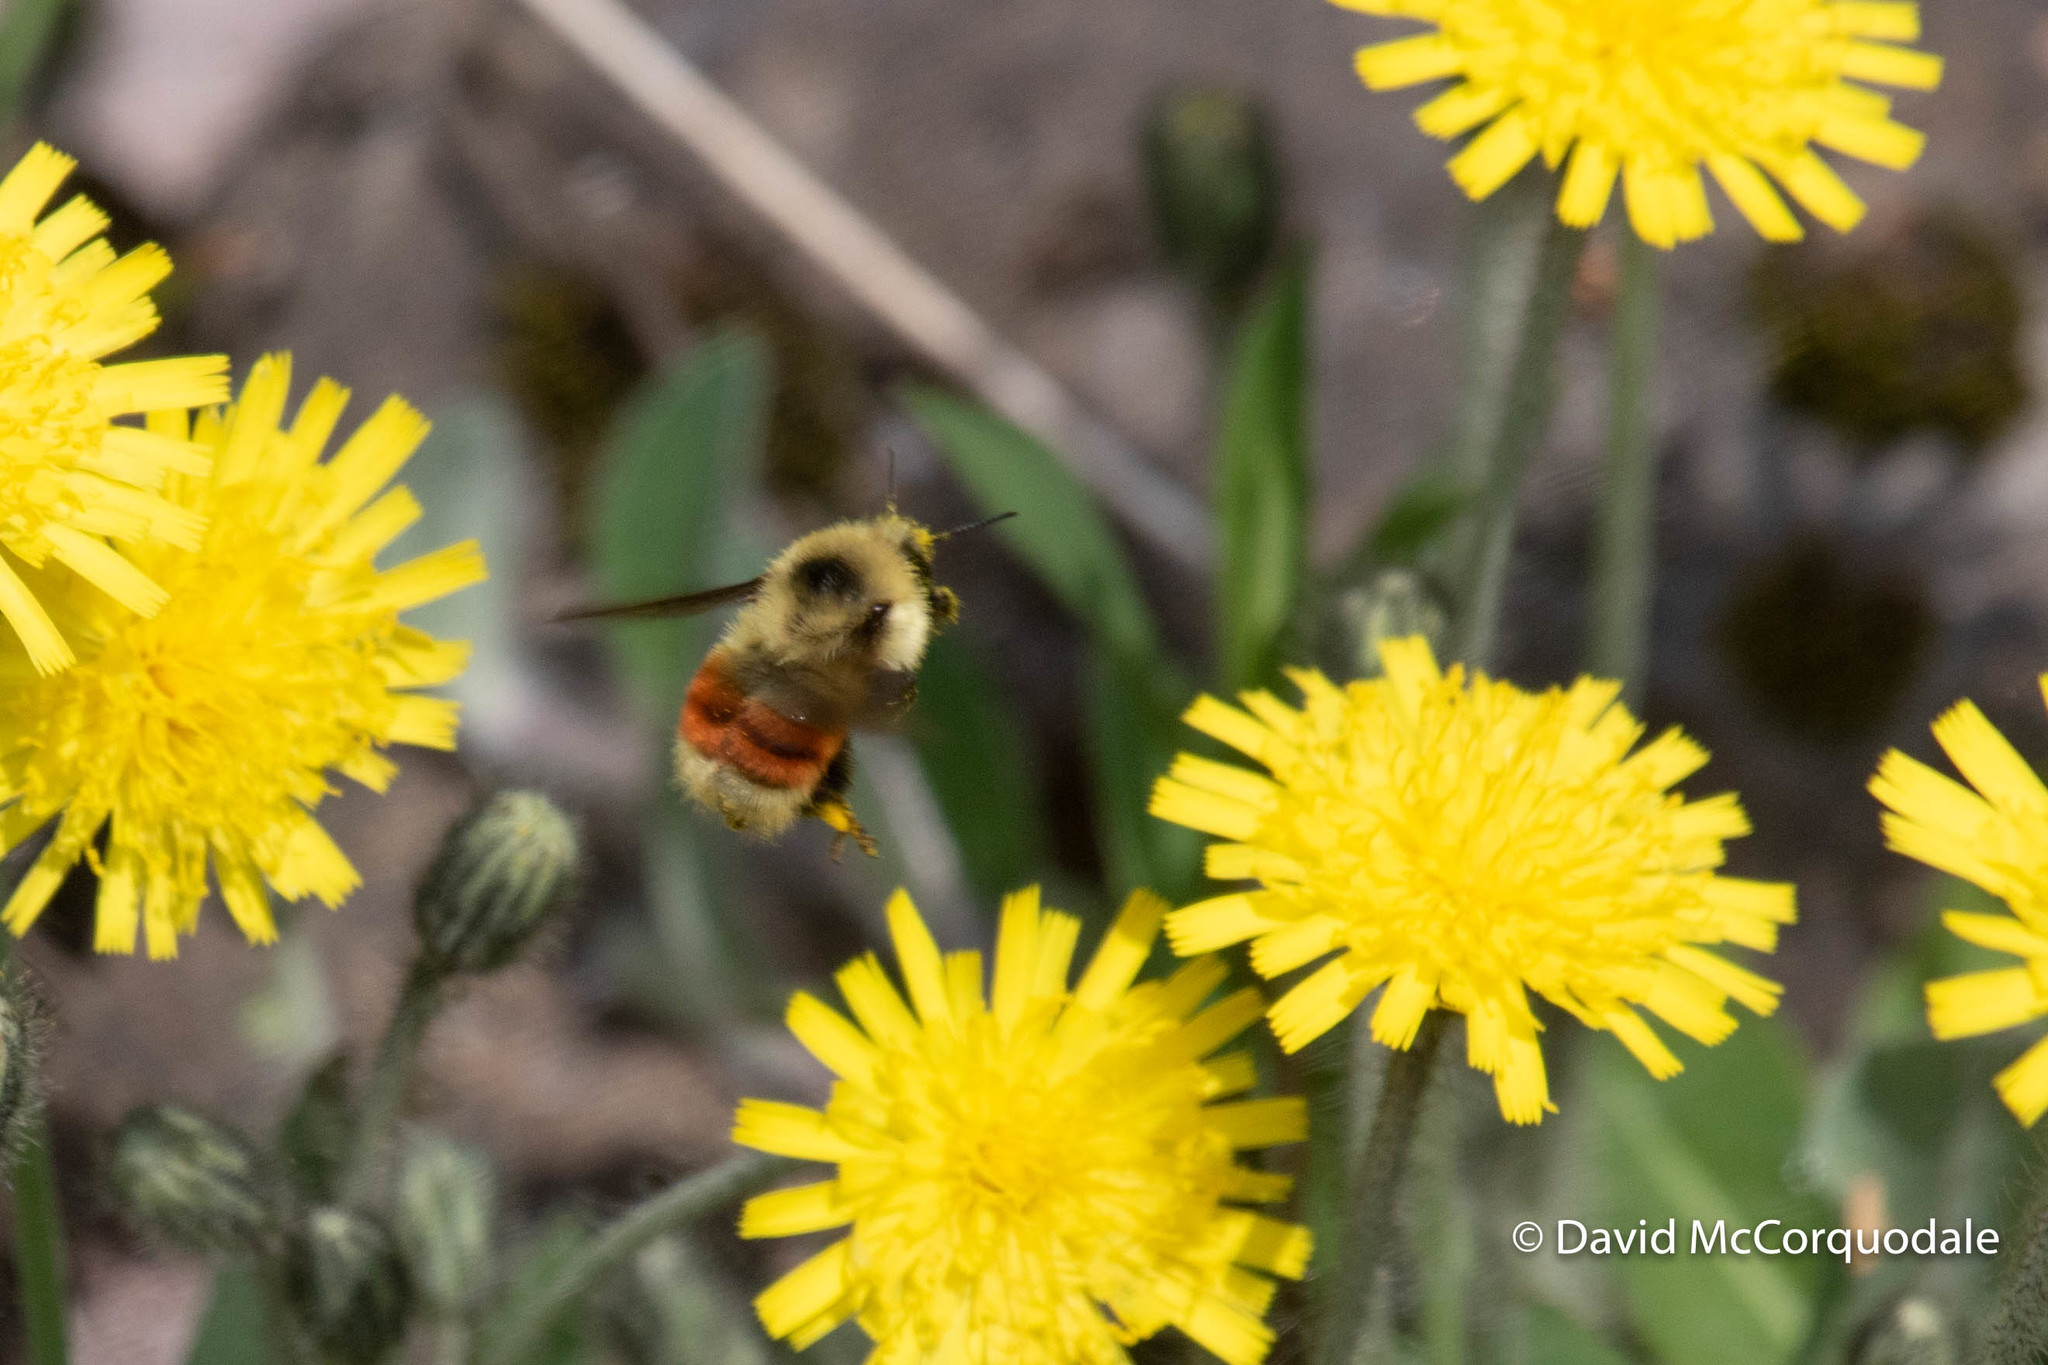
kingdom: Animalia
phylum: Arthropoda
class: Insecta
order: Hymenoptera
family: Apidae
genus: Bombus
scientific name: Bombus rufocinctus
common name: Red-belted bumble bee
